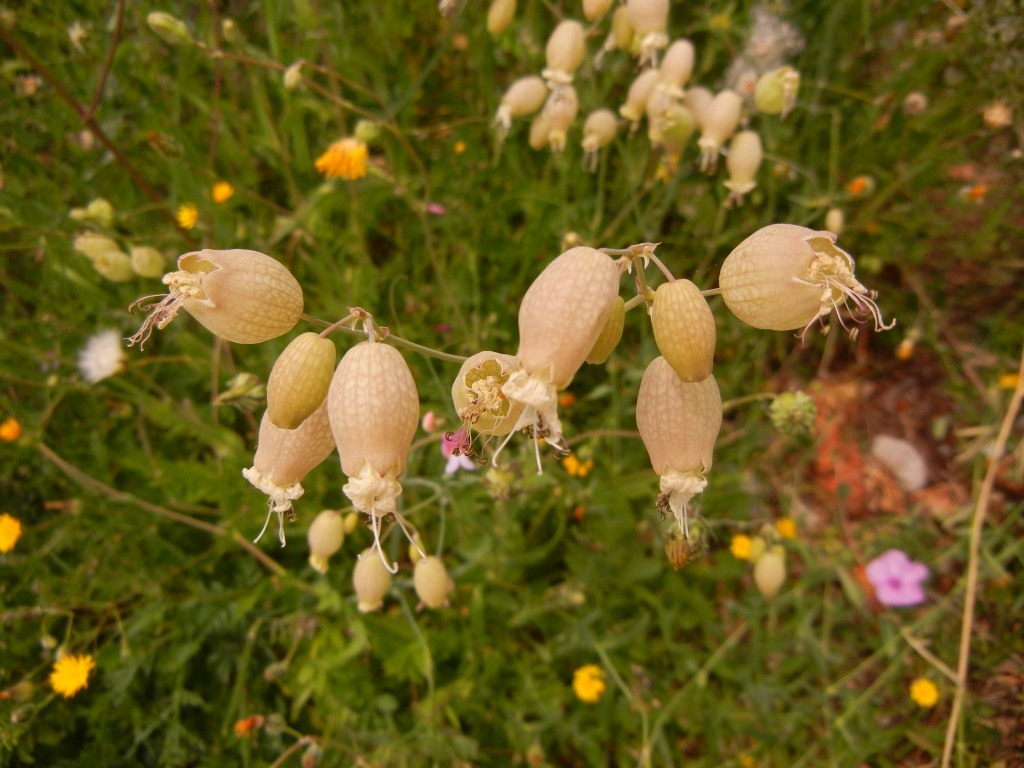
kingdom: Plantae
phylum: Tracheophyta
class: Magnoliopsida
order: Caryophyllales
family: Caryophyllaceae
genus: Silene
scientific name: Silene vulgaris
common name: Bladder campion
